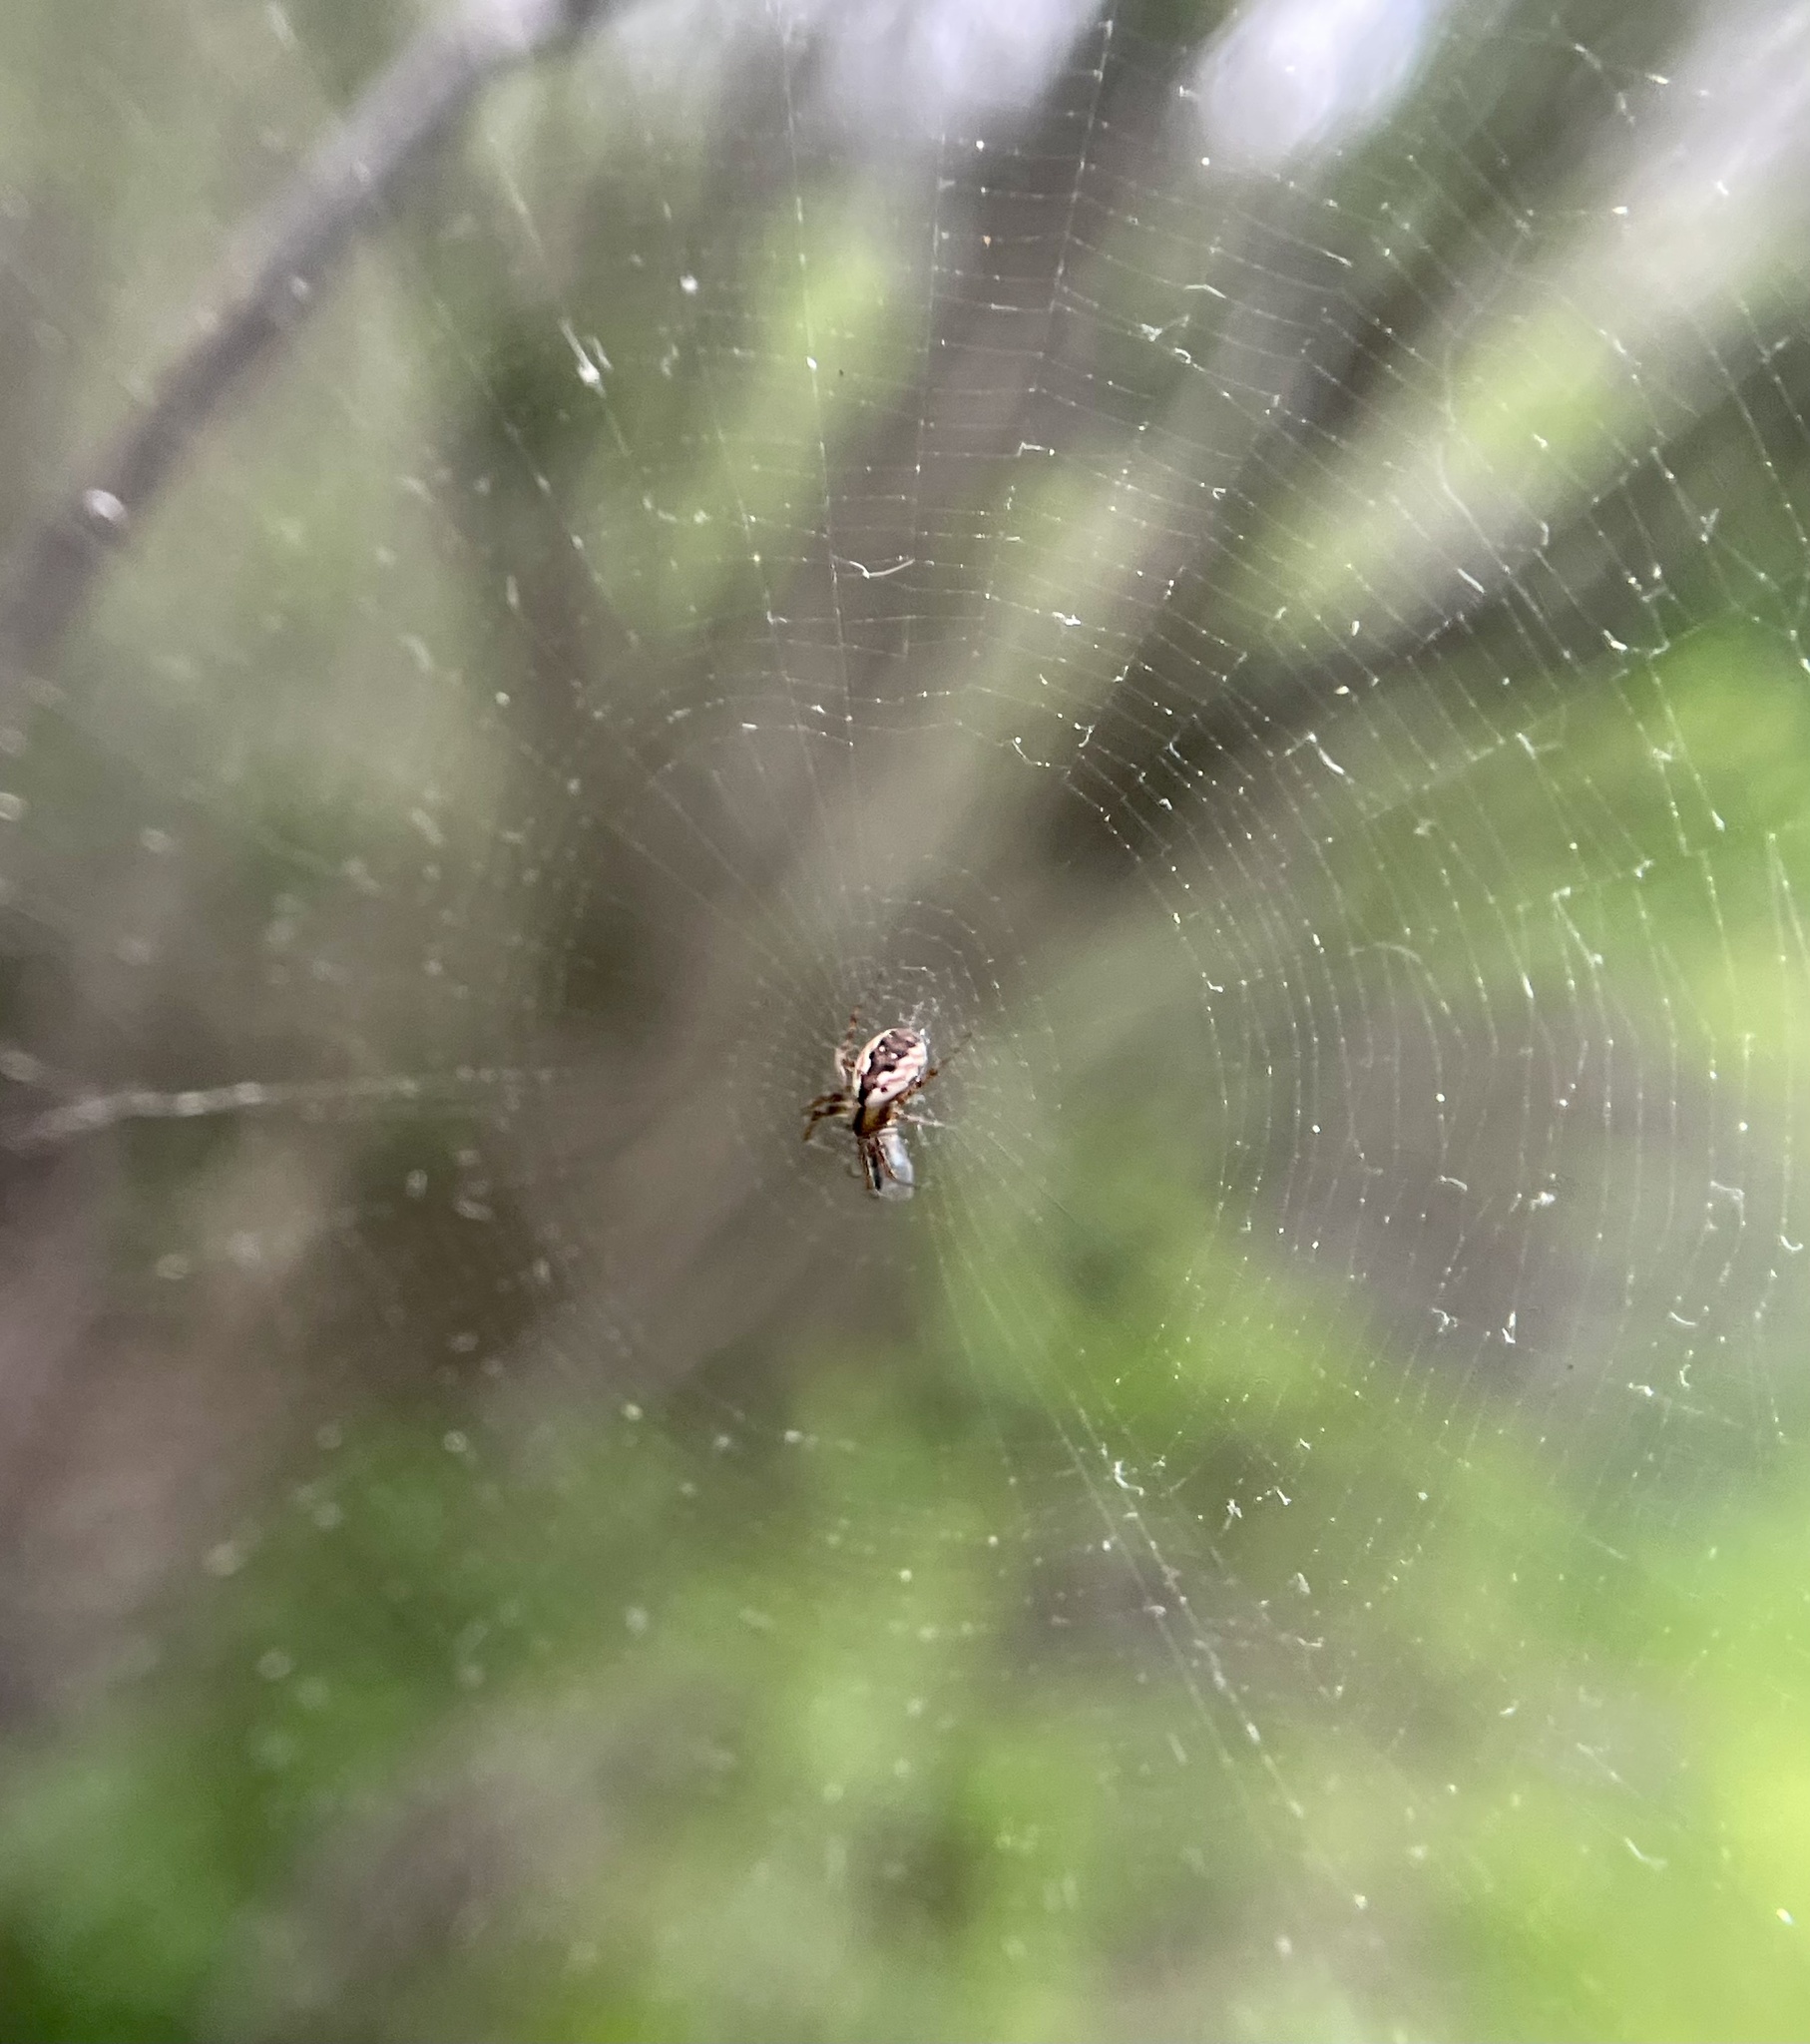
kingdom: Animalia
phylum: Arthropoda
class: Arachnida
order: Araneae
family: Araneidae
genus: Mangora
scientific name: Mangora placida
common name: Tuft-legged orbweaver
